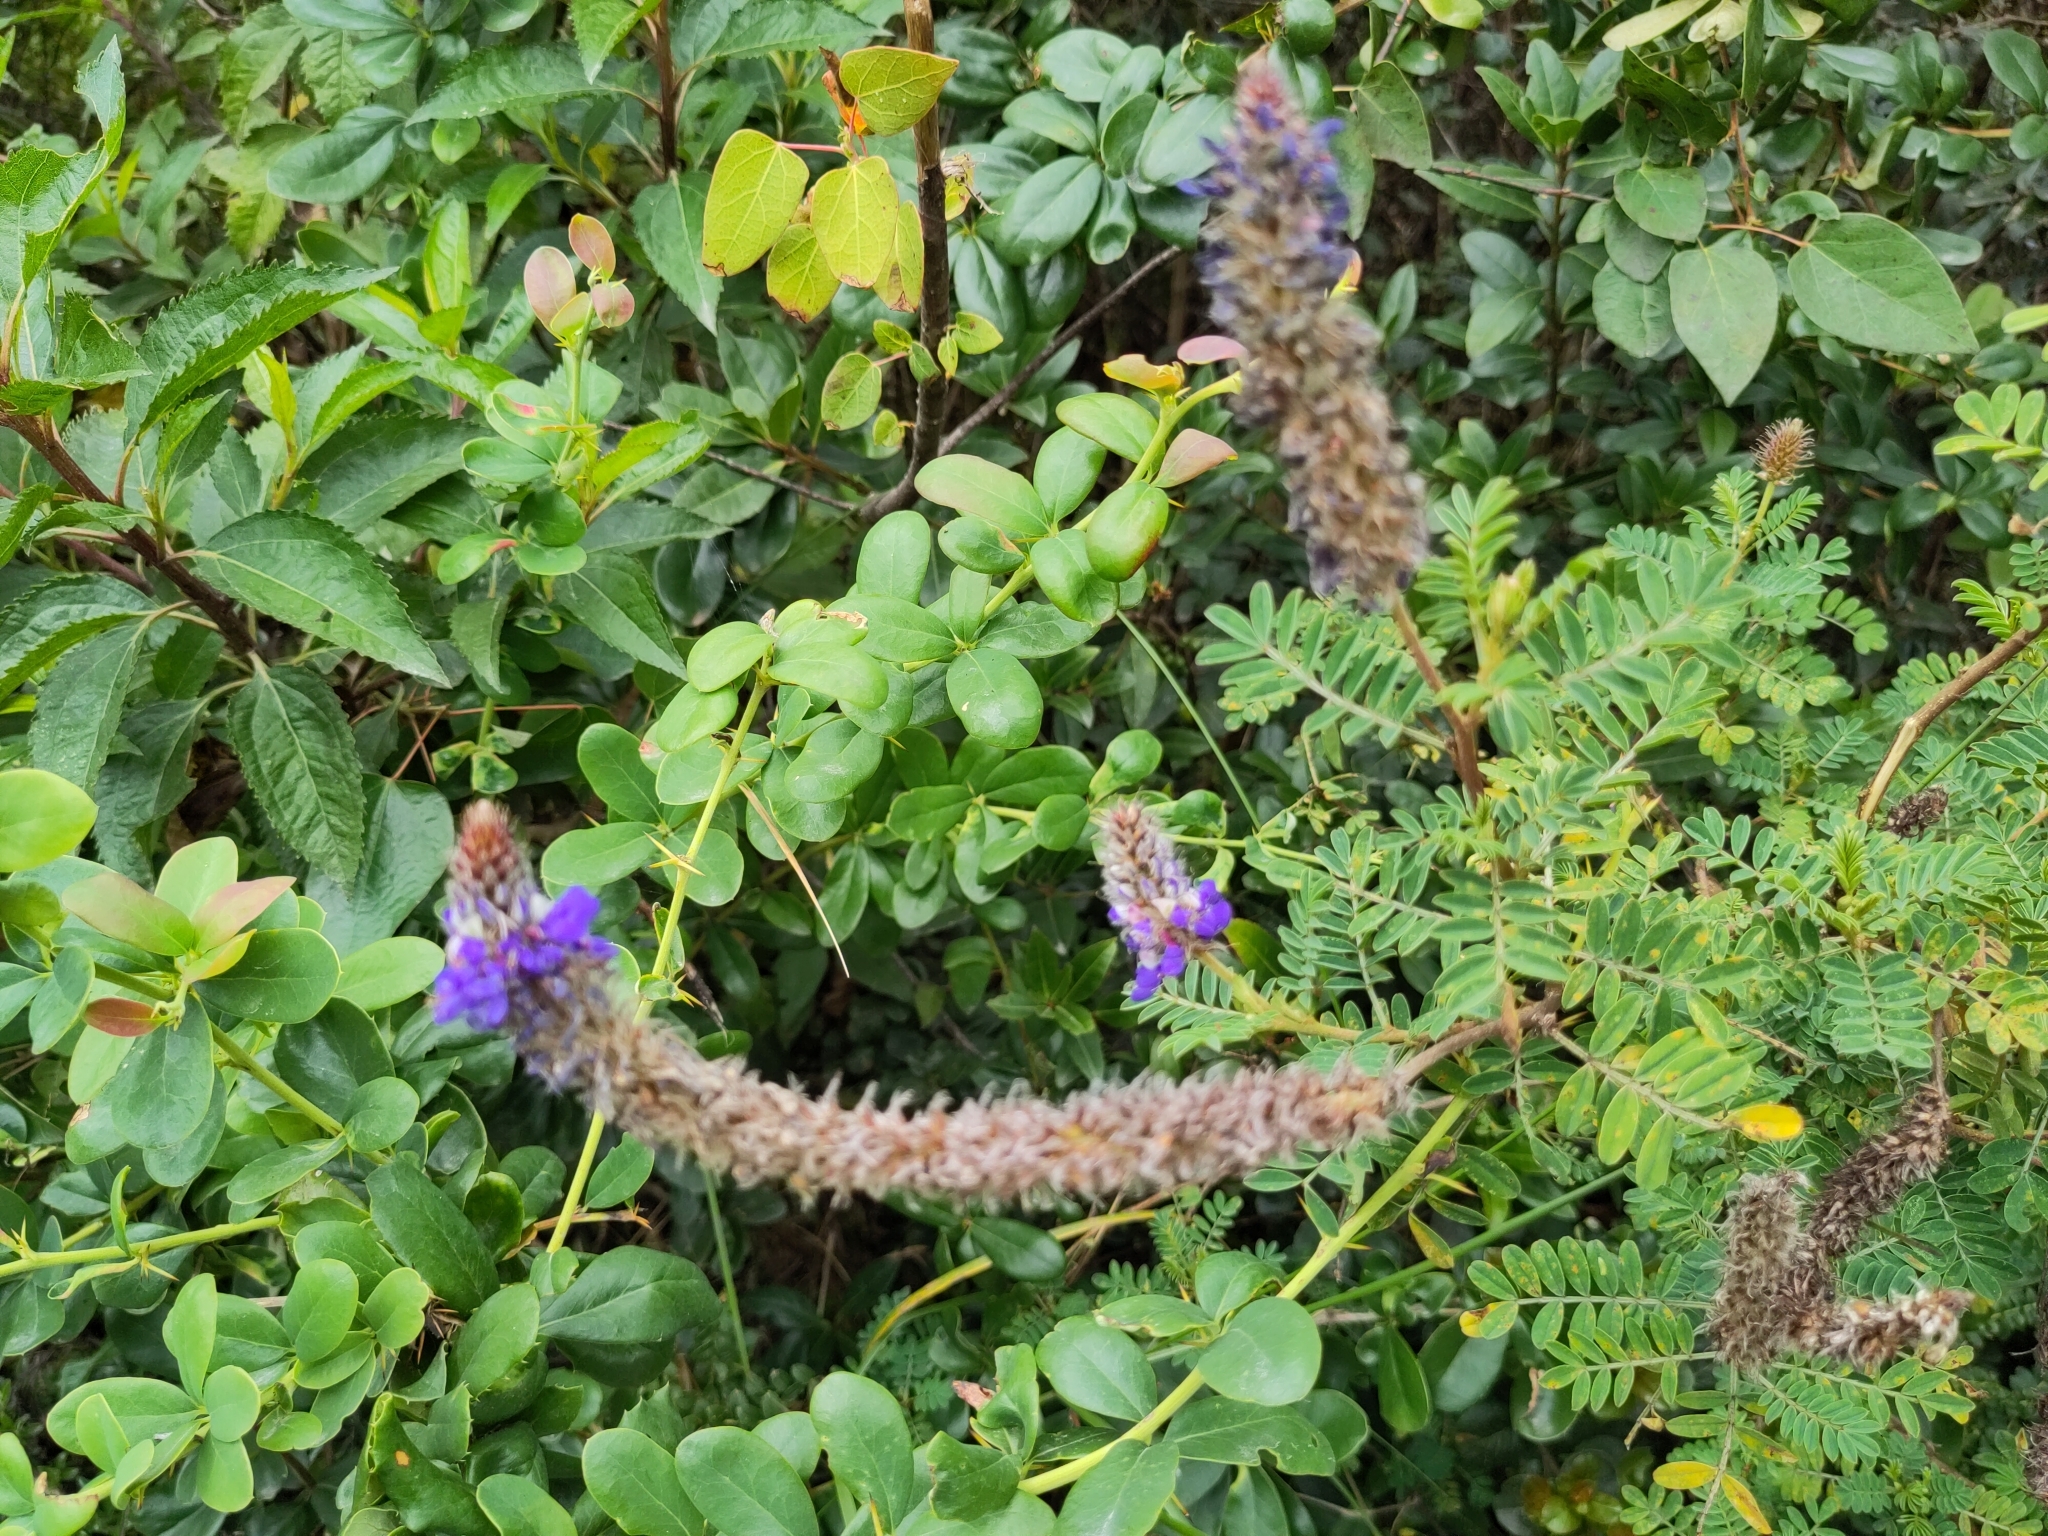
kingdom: Plantae
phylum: Tracheophyta
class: Magnoliopsida
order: Fabales
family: Fabaceae
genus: Dalea
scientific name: Dalea coerulea
